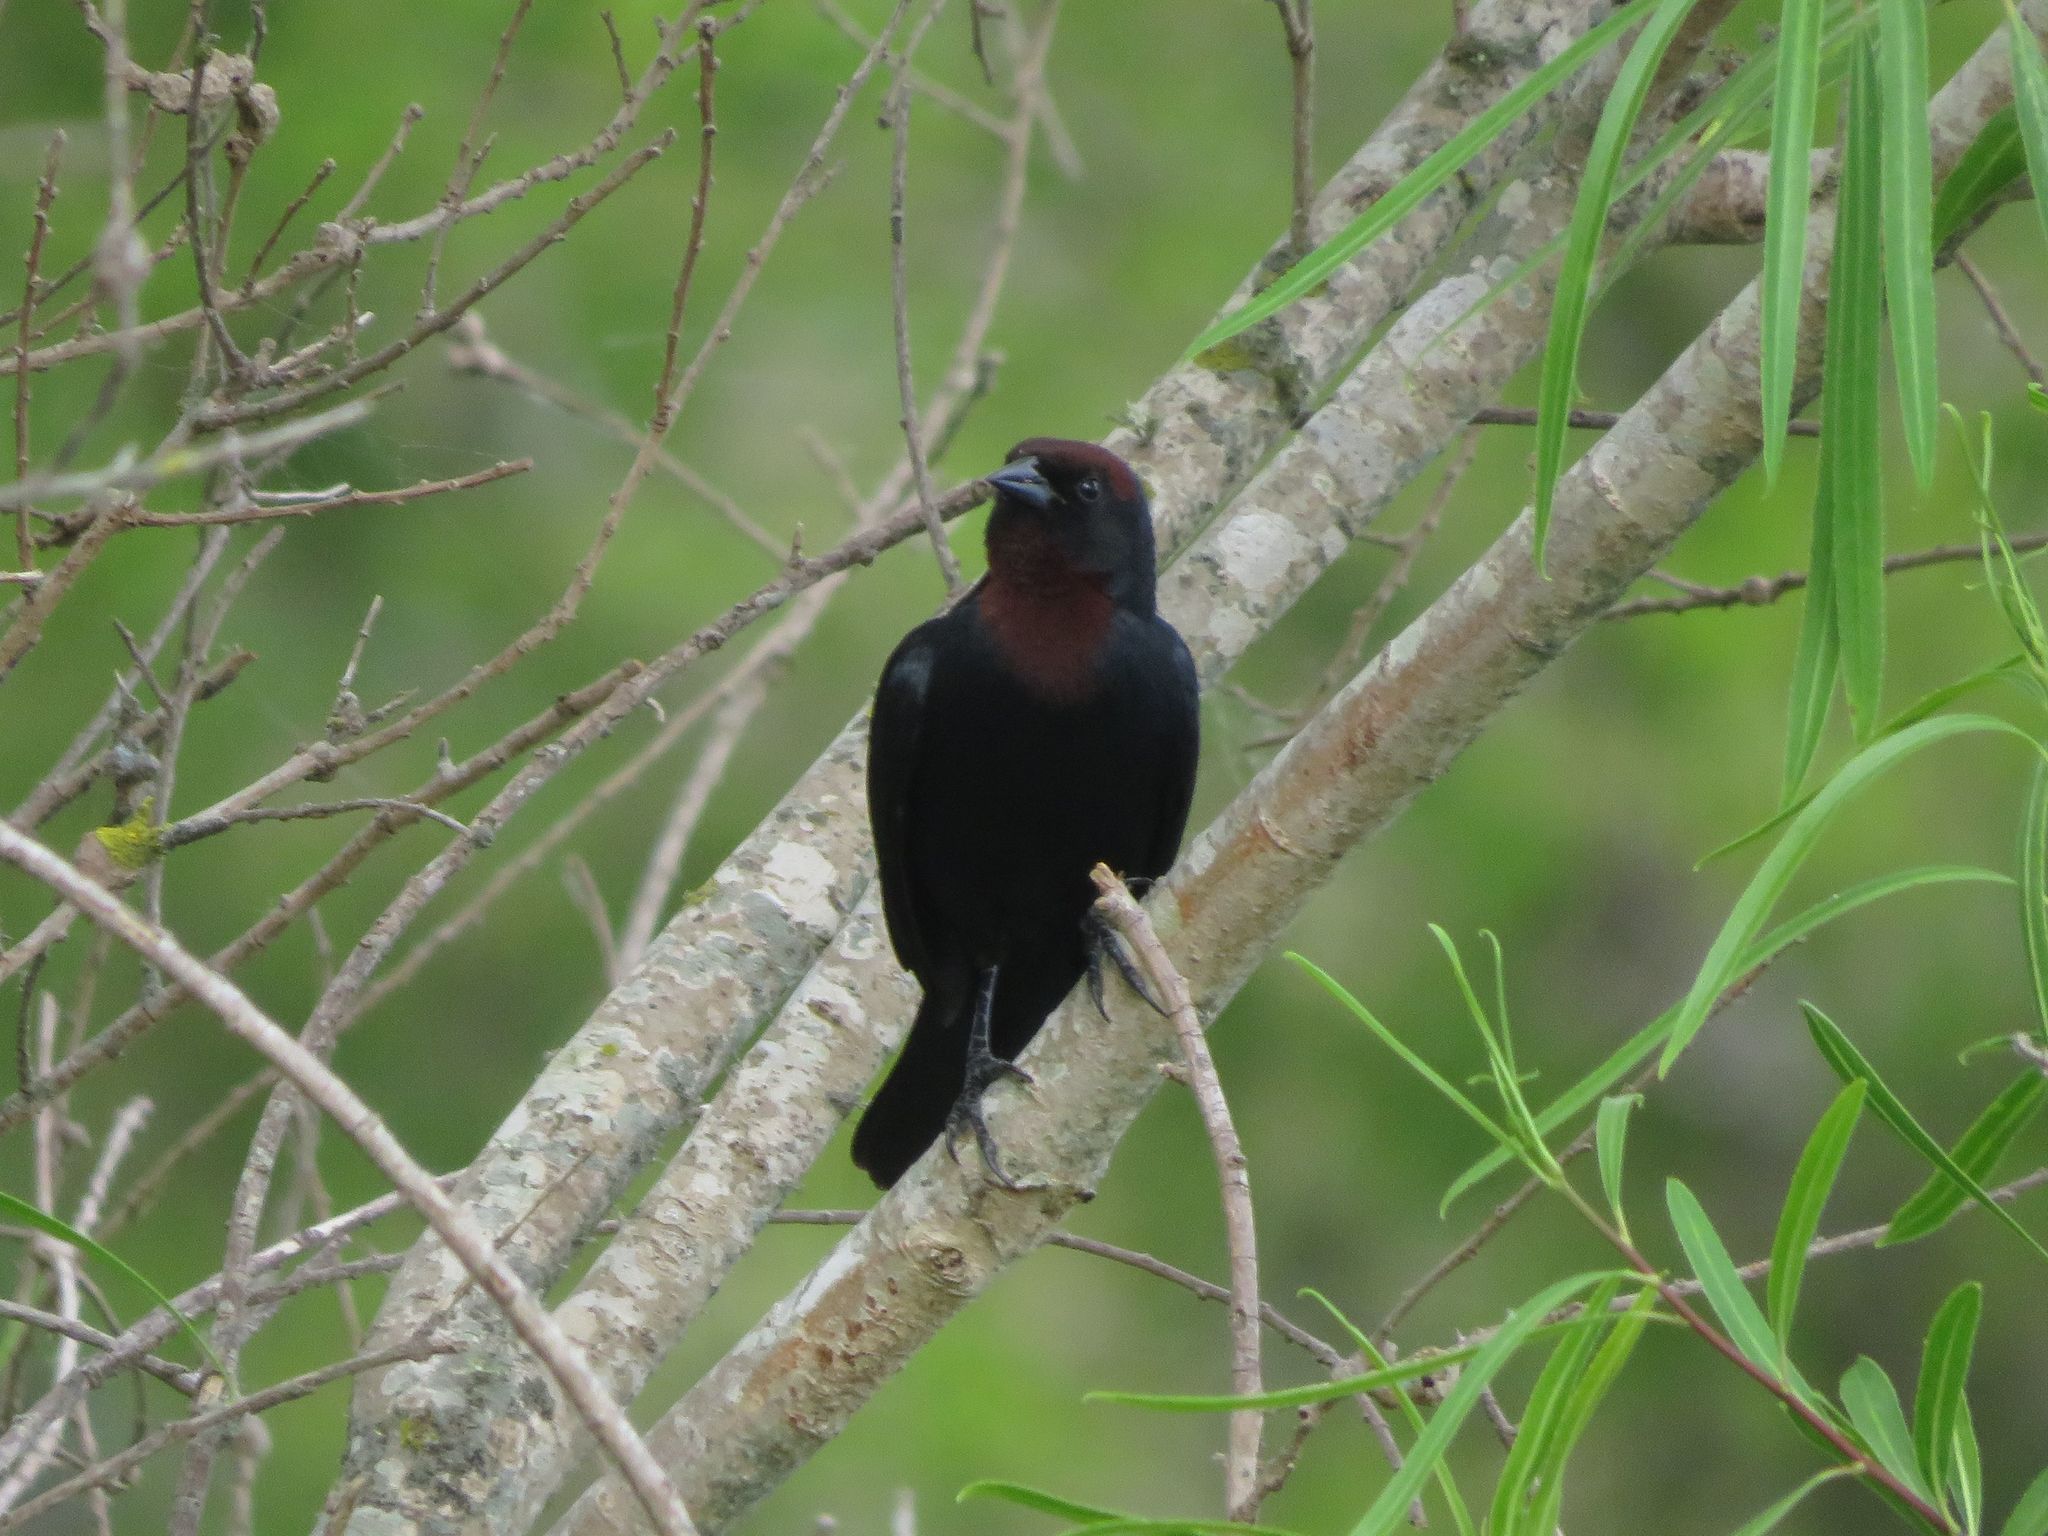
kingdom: Animalia
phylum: Chordata
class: Aves
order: Passeriformes
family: Icteridae
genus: Chrysomus
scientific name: Chrysomus ruficapillus
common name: Chestnut-capped blackbird
